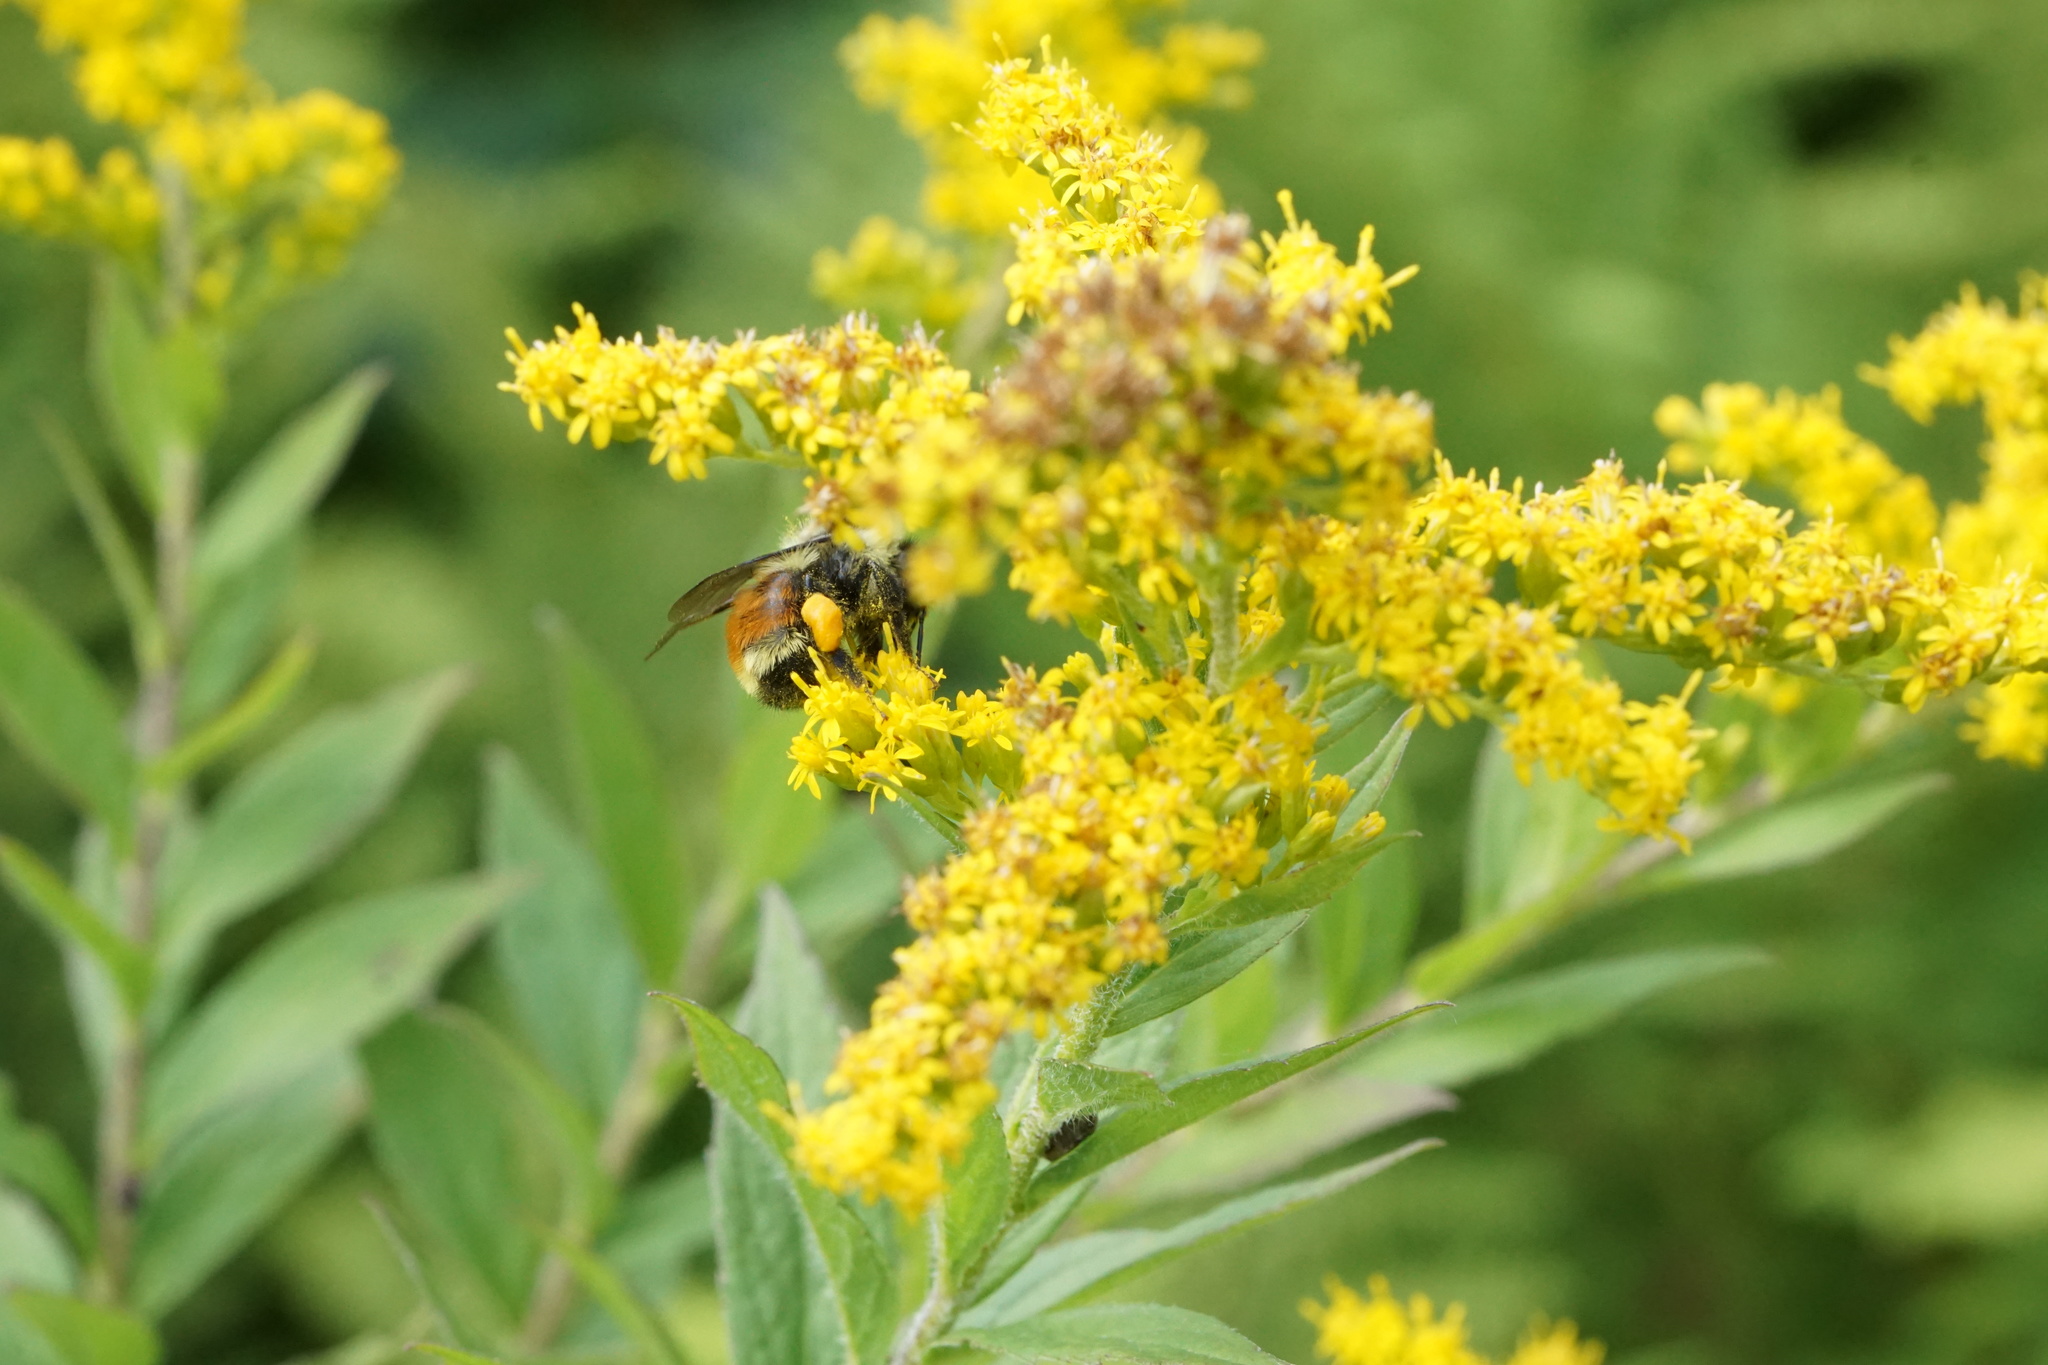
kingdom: Animalia
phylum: Arthropoda
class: Insecta
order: Hymenoptera
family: Apidae
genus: Bombus
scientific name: Bombus ternarius
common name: Tri-colored bumble bee
